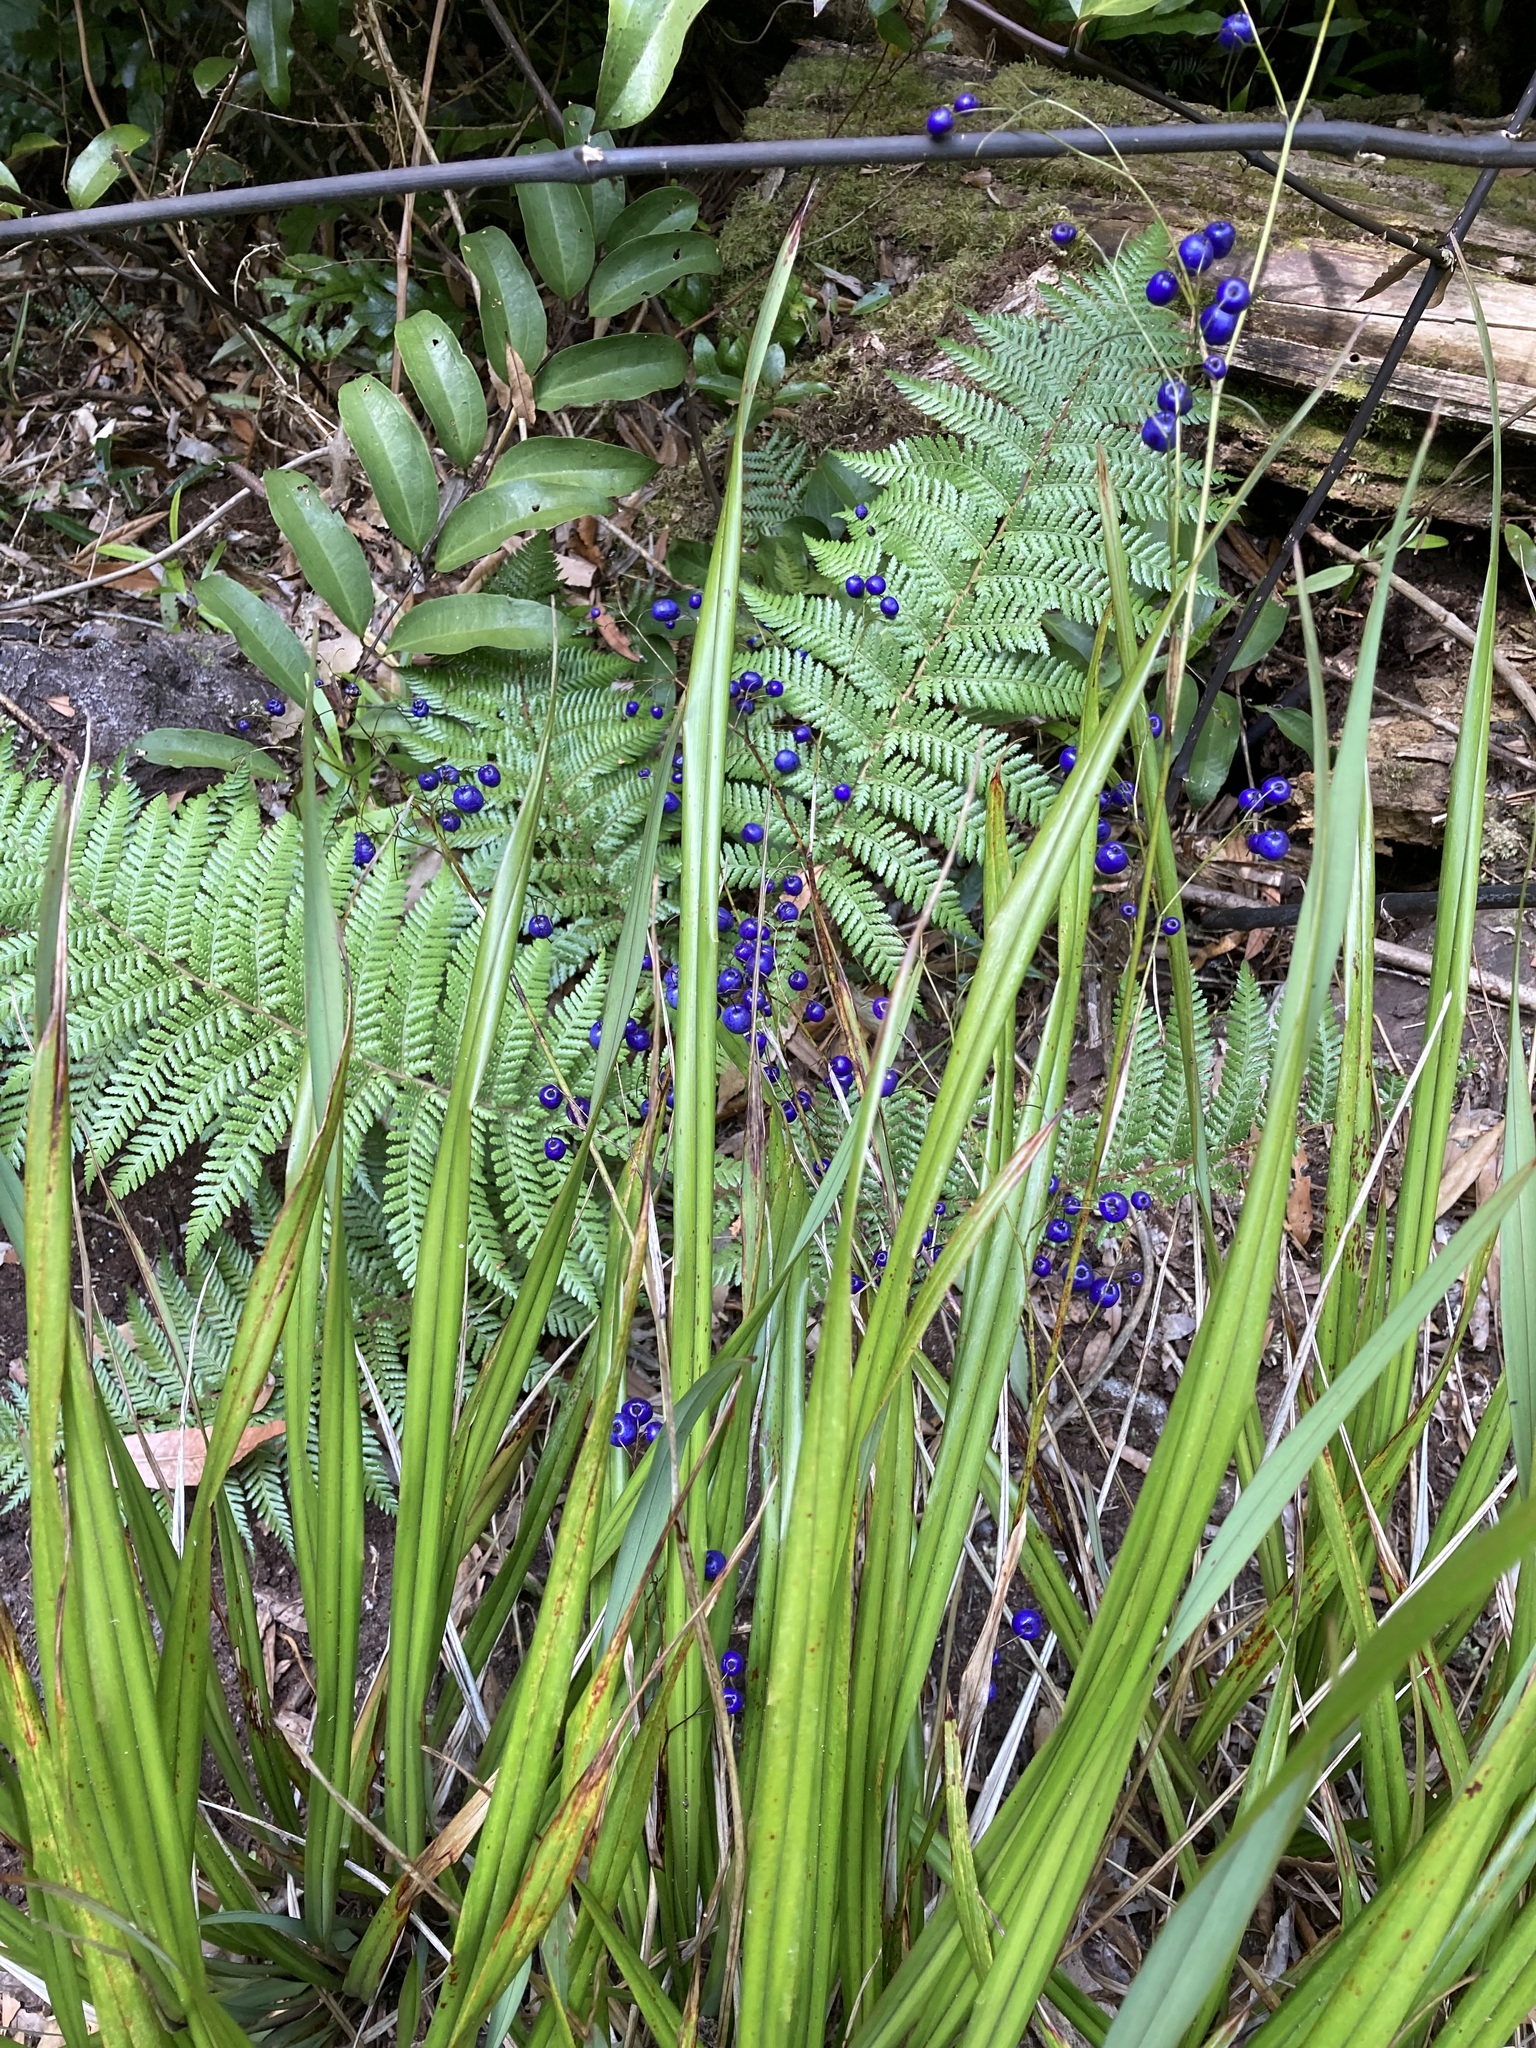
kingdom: Plantae
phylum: Tracheophyta
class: Liliopsida
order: Asparagales
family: Asphodelaceae
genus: Dianella
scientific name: Dianella nigra
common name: New zealand-blueberry
